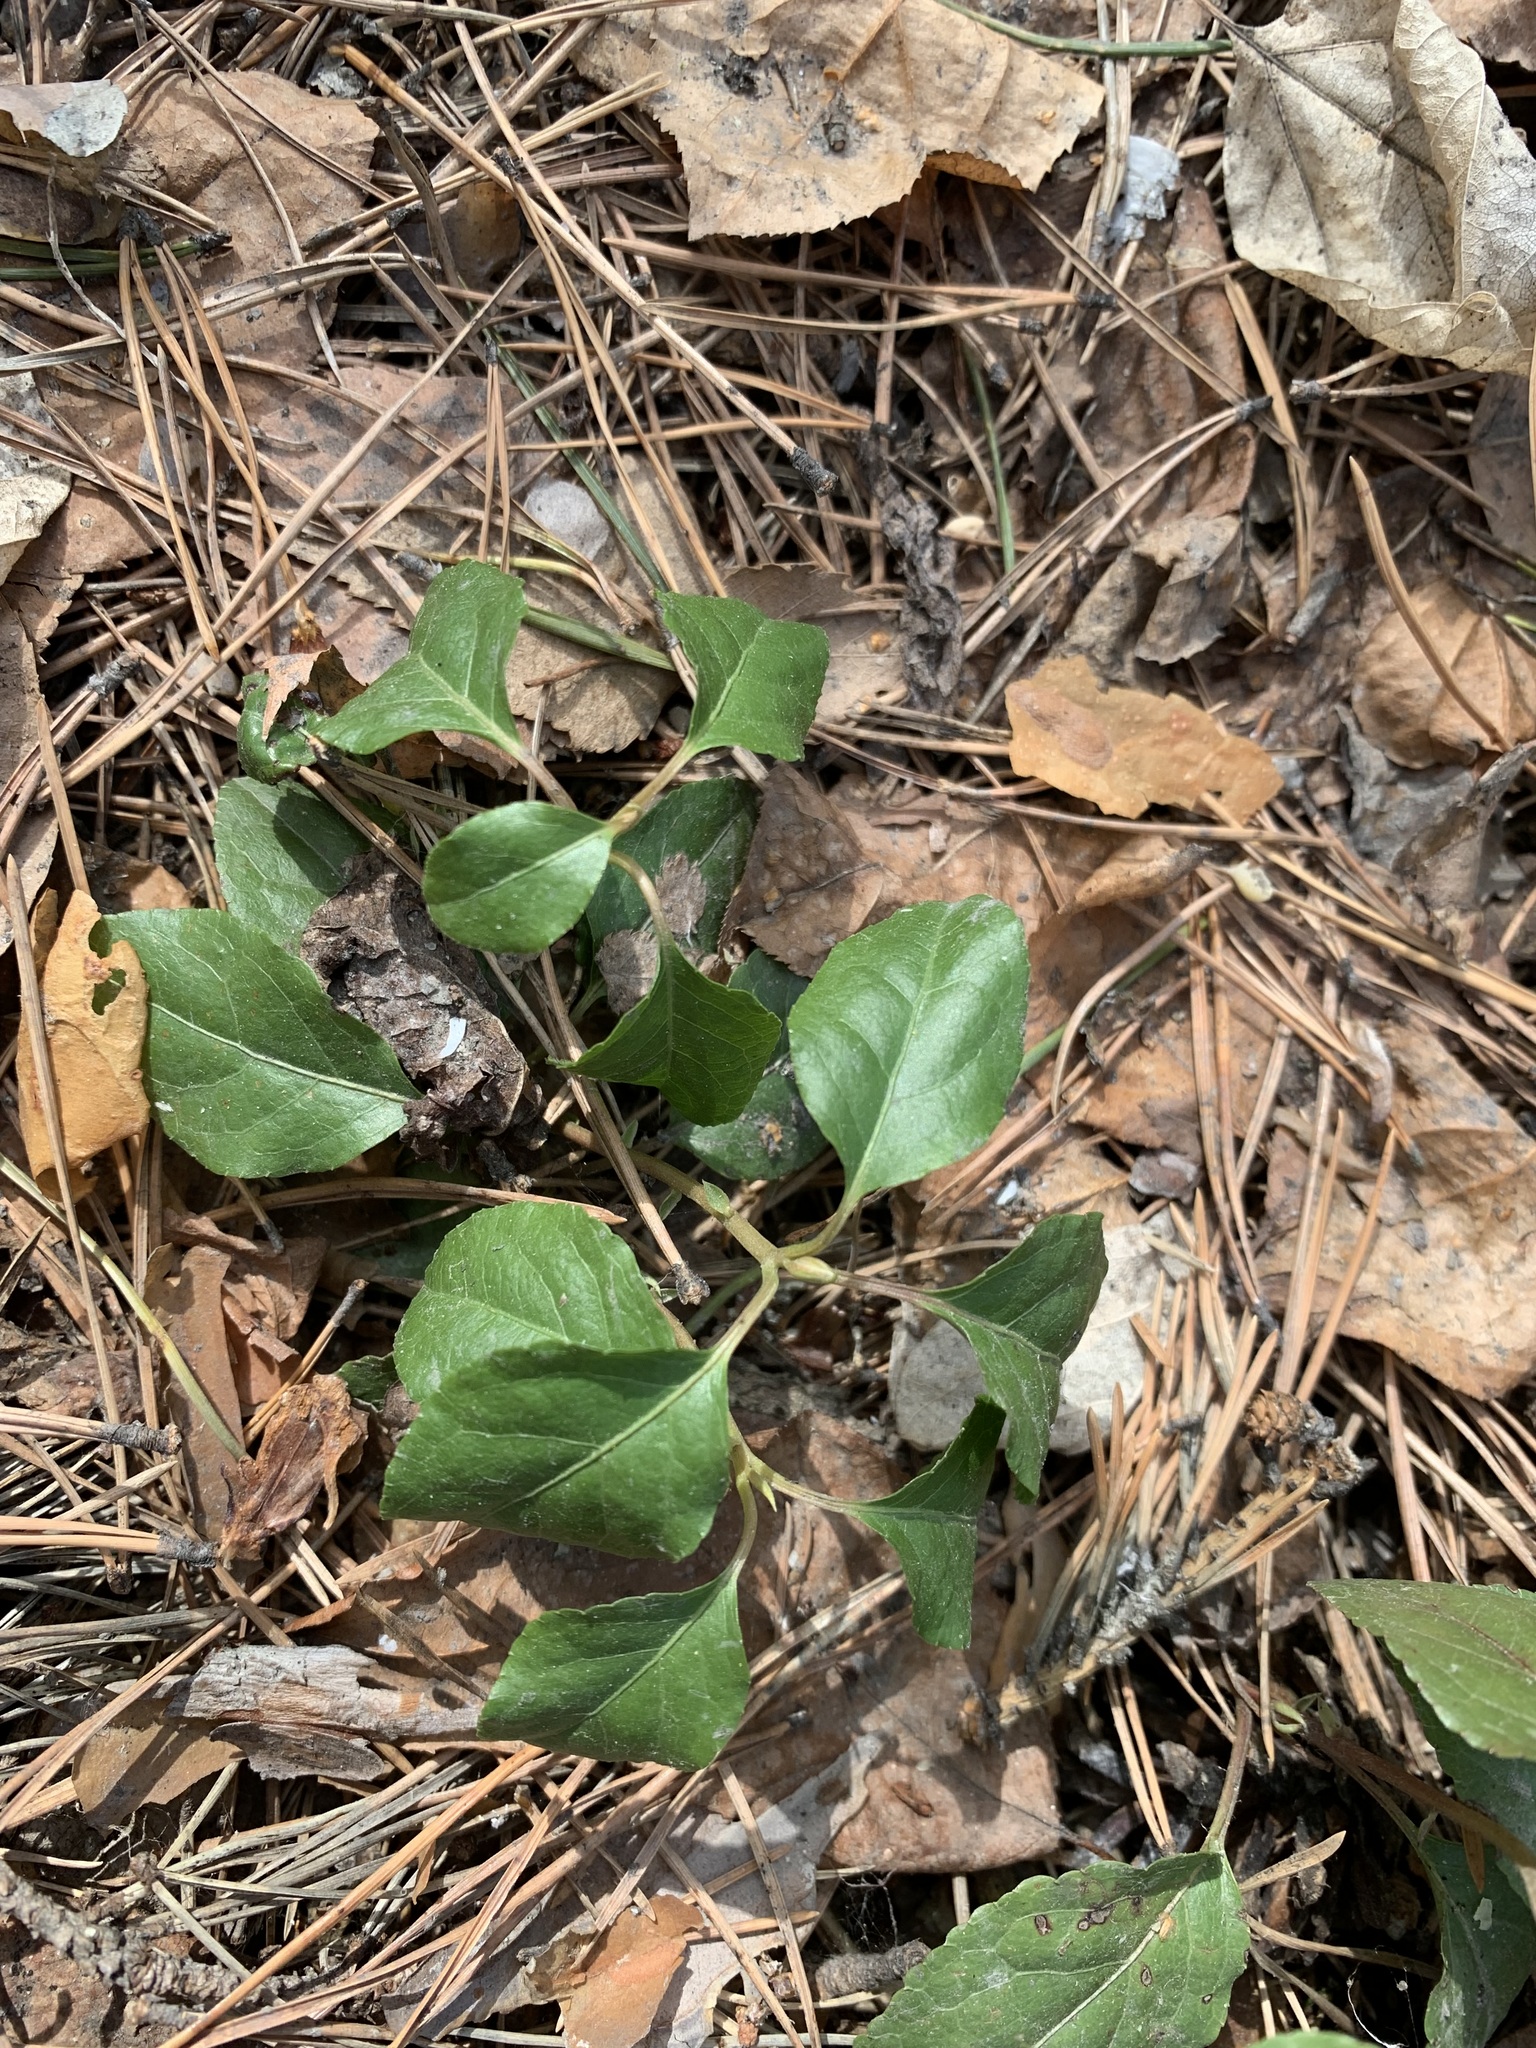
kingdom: Plantae
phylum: Tracheophyta
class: Magnoliopsida
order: Ericales
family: Ericaceae
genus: Orthilia
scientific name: Orthilia secunda
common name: One-sided orthilia
